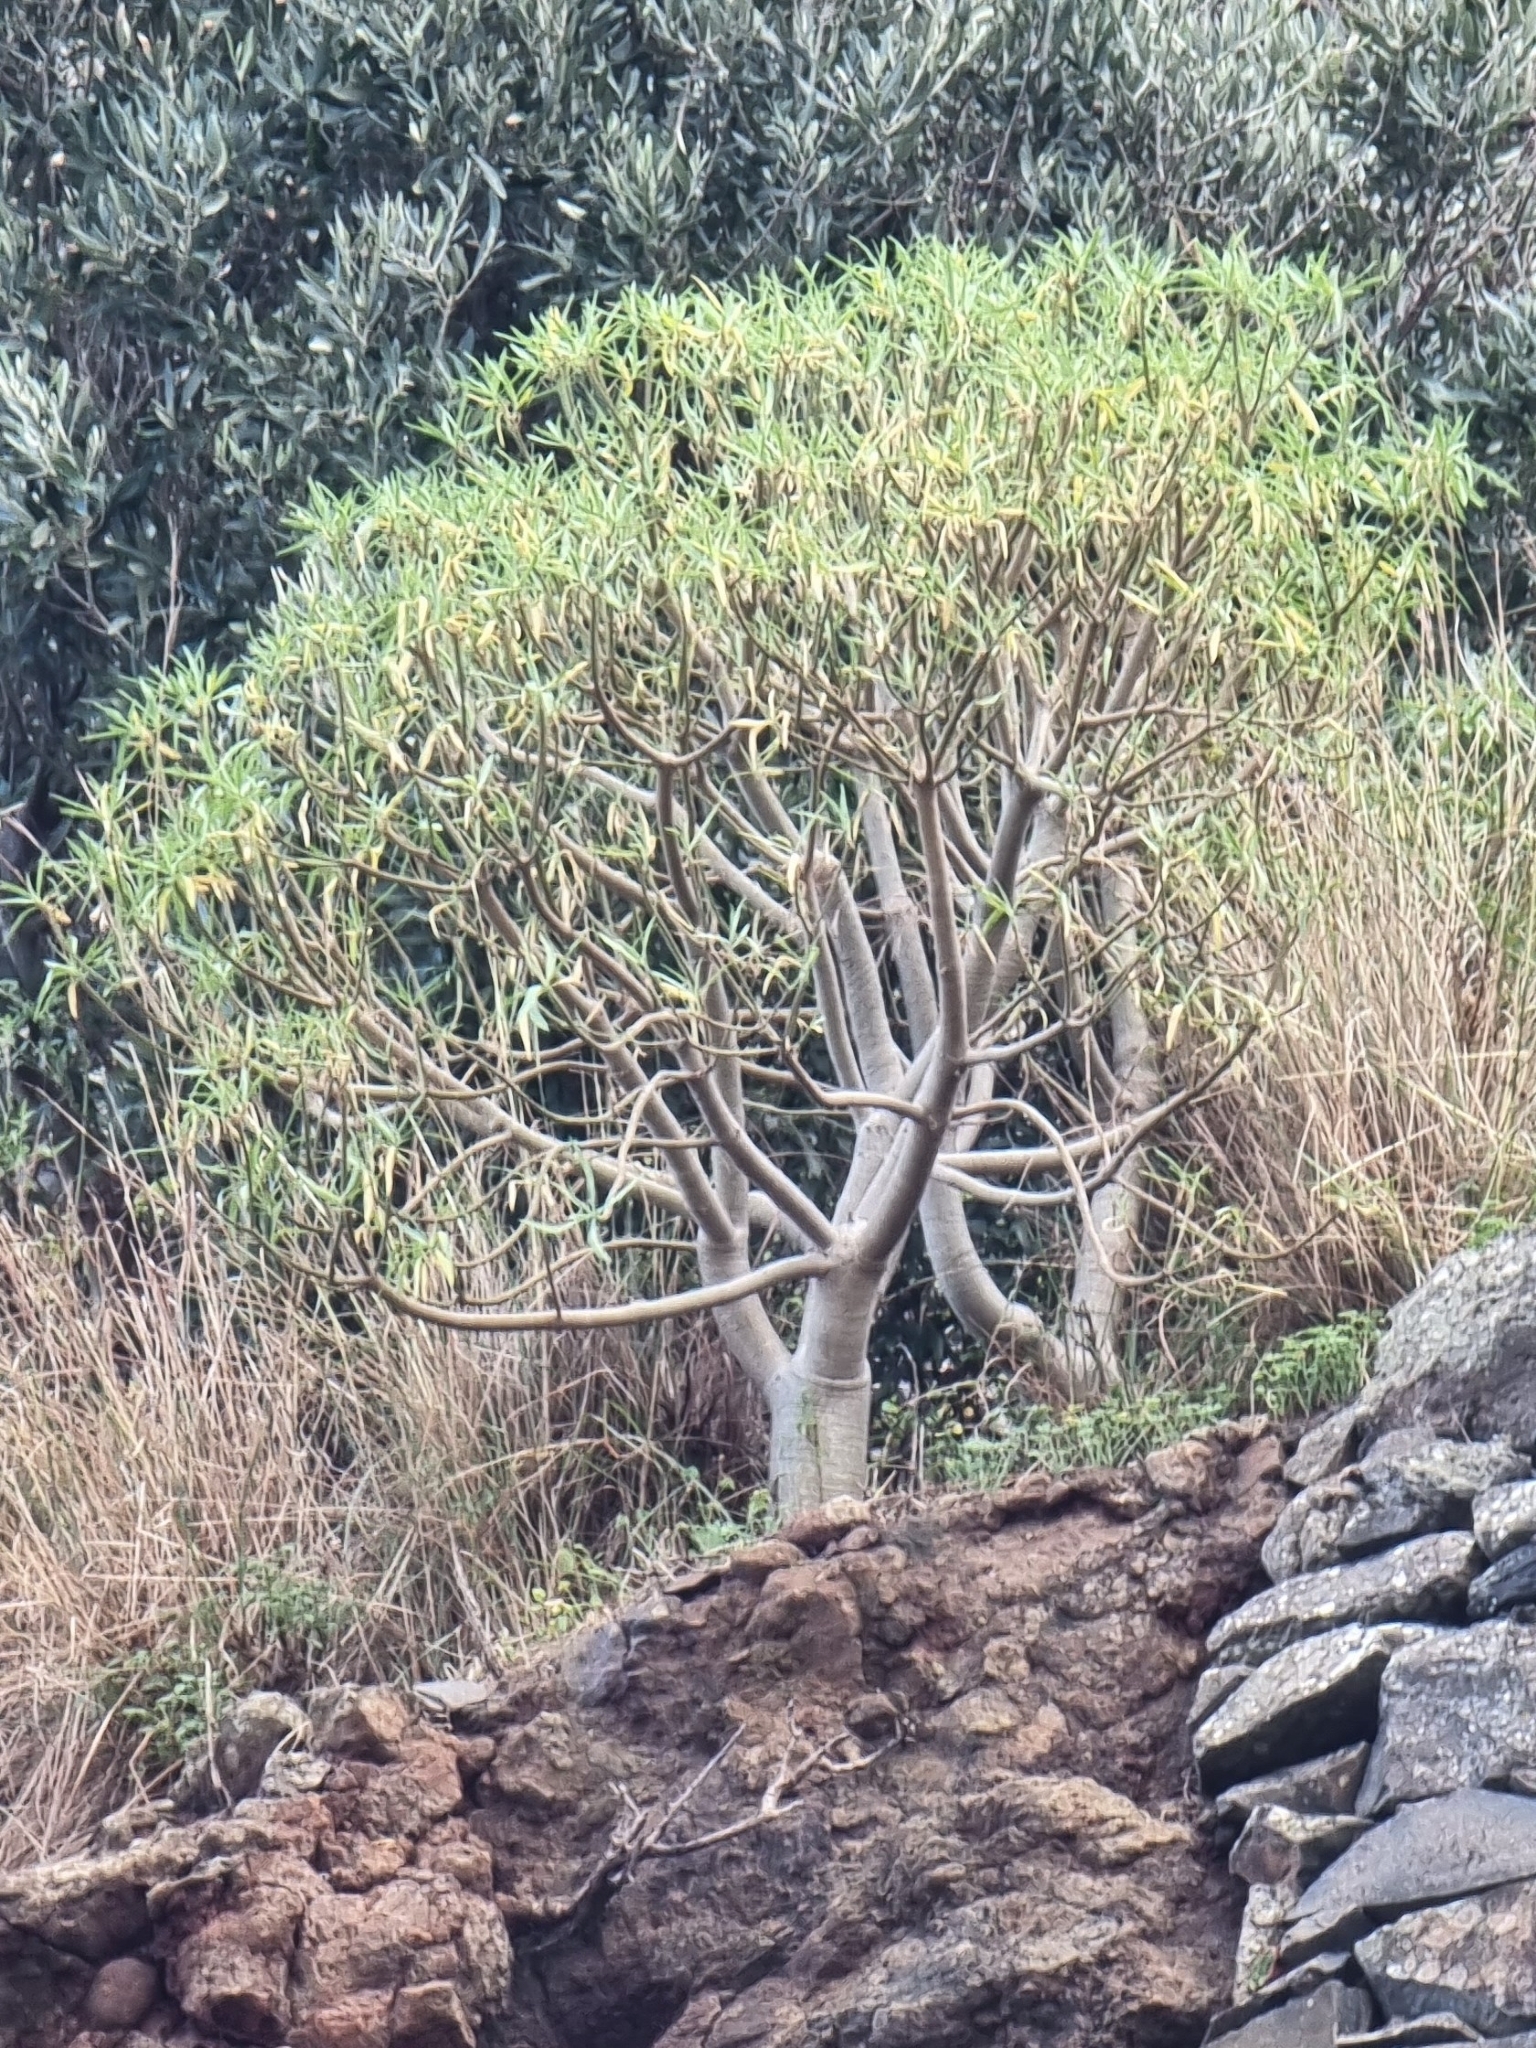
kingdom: Plantae
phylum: Tracheophyta
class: Magnoliopsida
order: Malpighiales
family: Euphorbiaceae
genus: Euphorbia
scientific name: Euphorbia piscatoria
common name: Fish-stunning spurge
